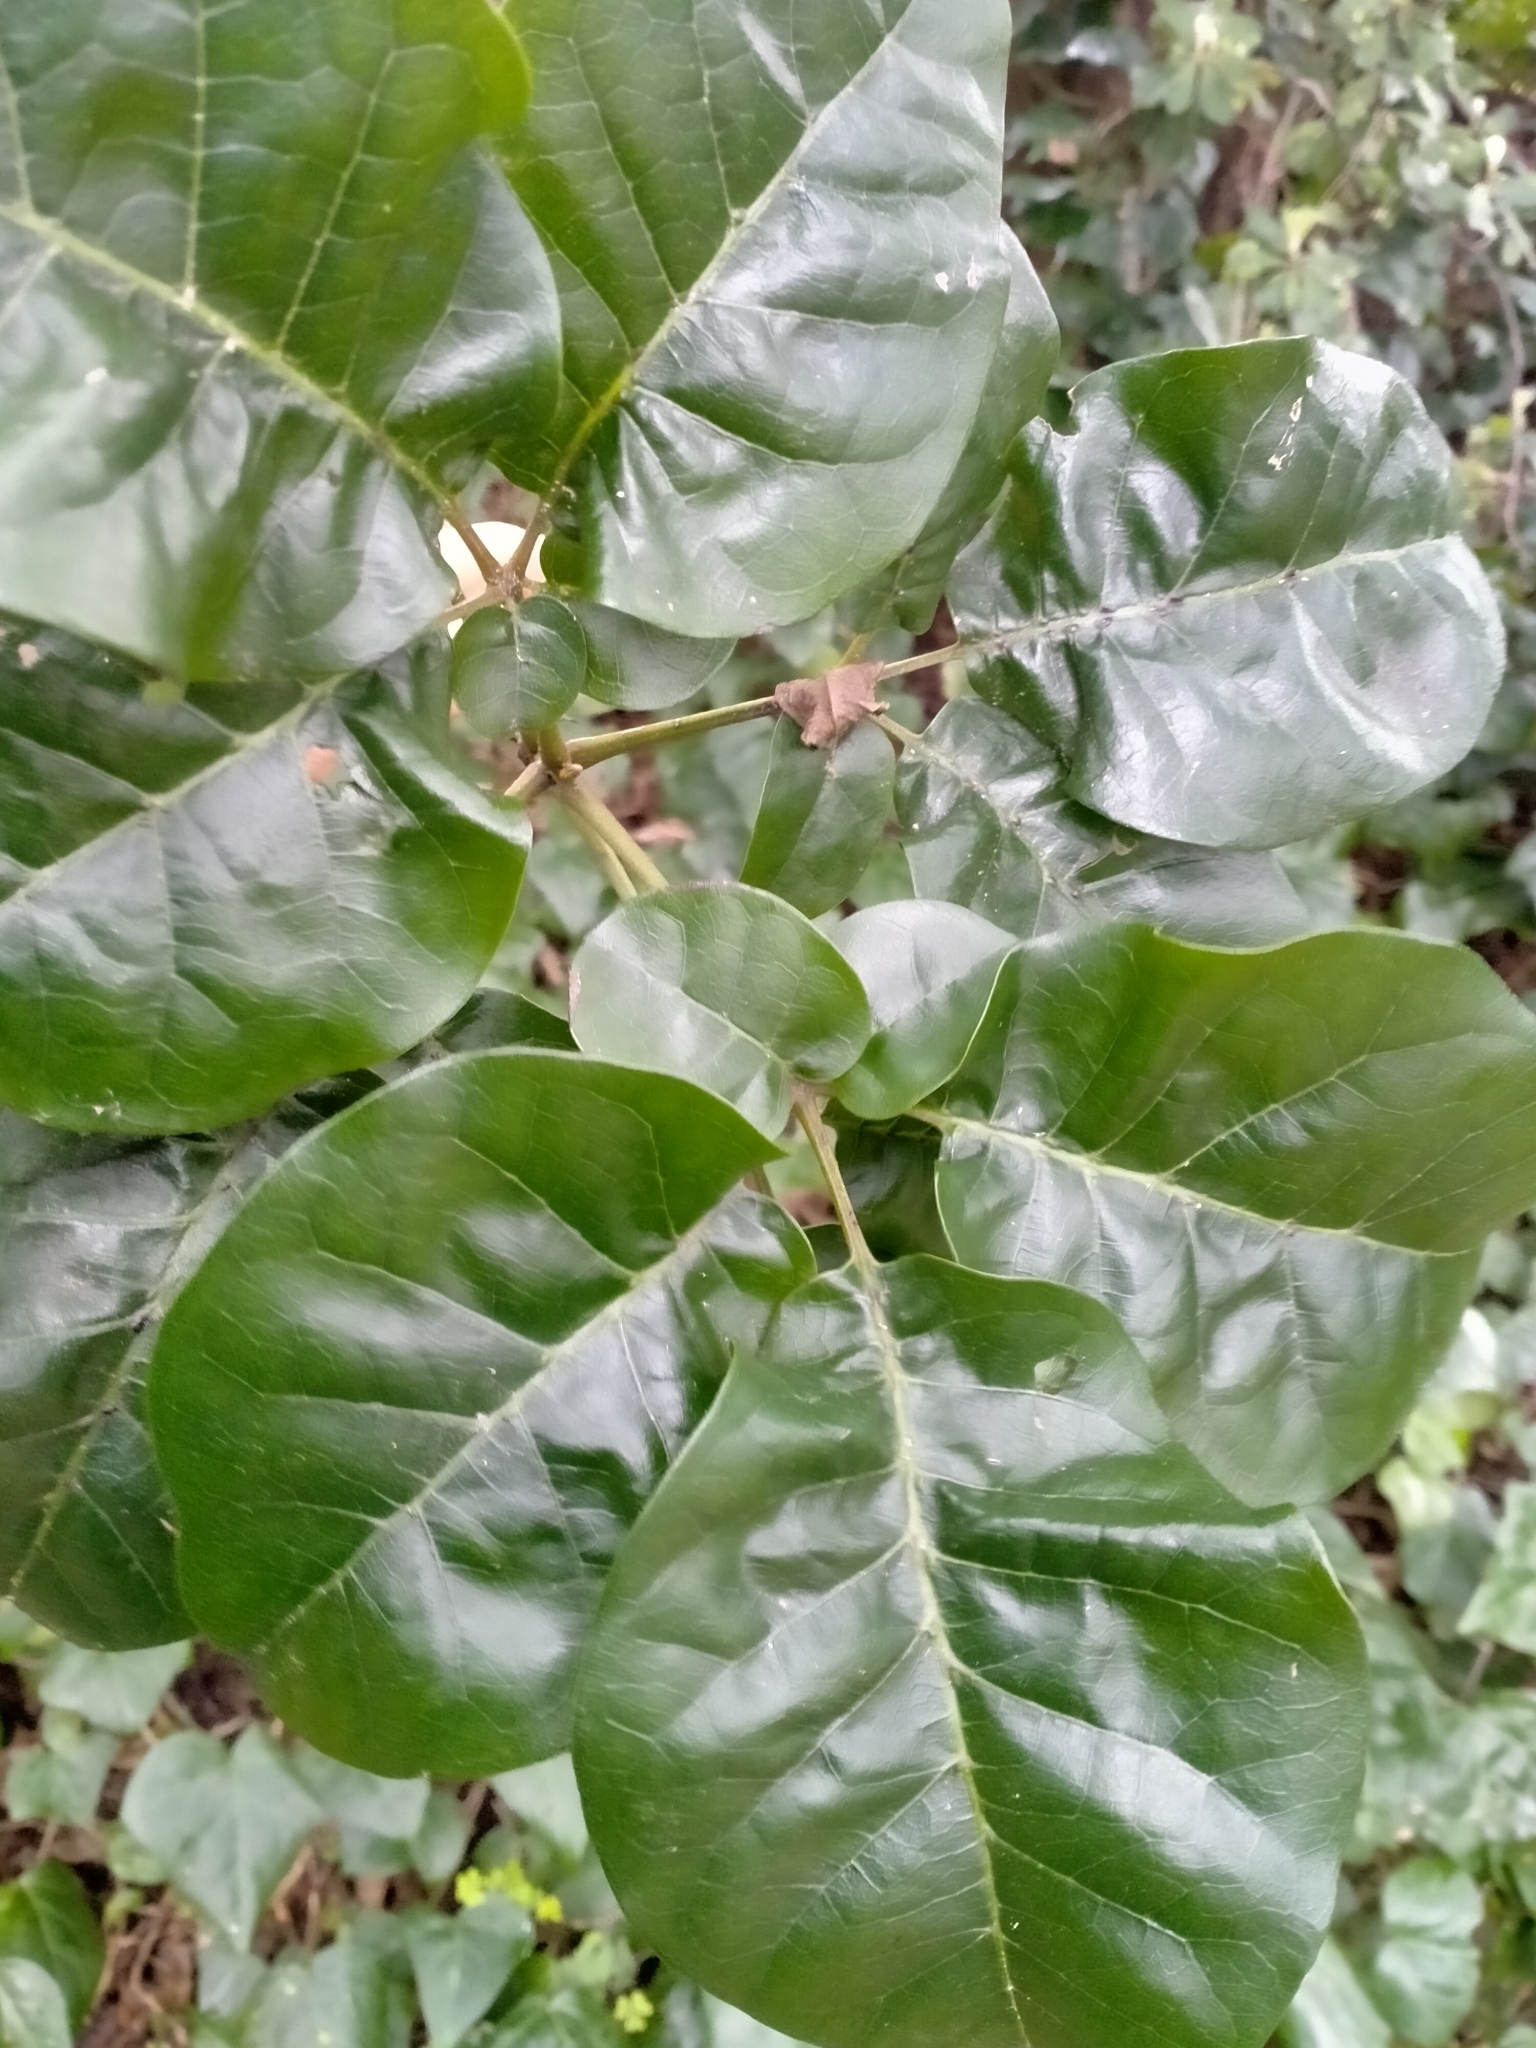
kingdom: Plantae
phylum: Tracheophyta
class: Magnoliopsida
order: Lamiales
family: Lamiaceae
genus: Vitex
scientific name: Vitex lucens
